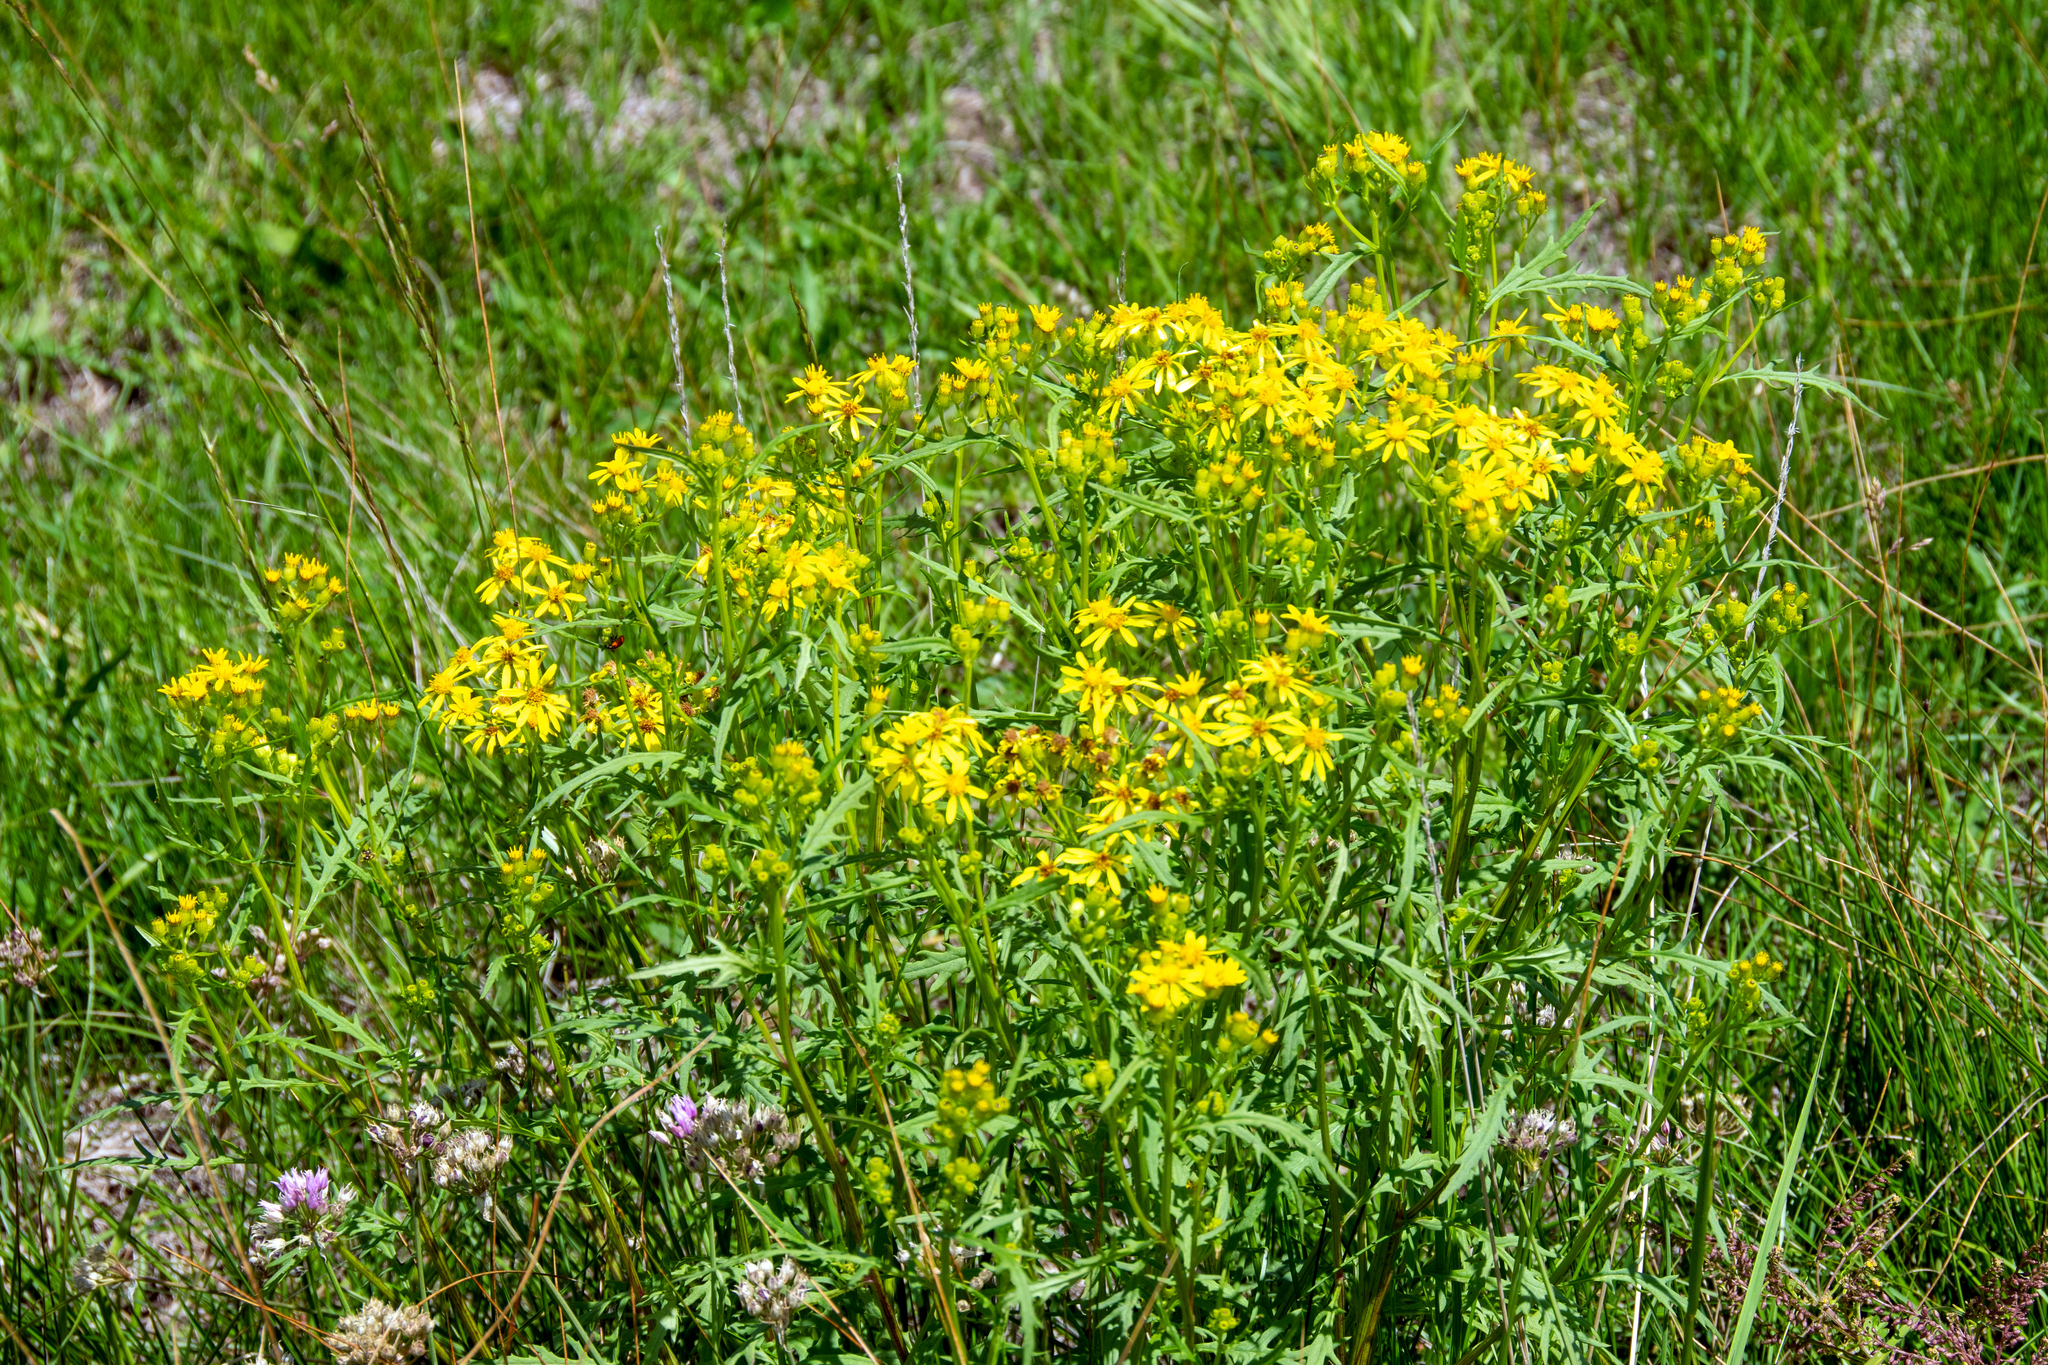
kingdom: Plantae
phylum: Tracheophyta
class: Magnoliopsida
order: Asterales
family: Asteraceae
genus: Senecio
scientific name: Senecio eremophilus
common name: Desert ragwort
